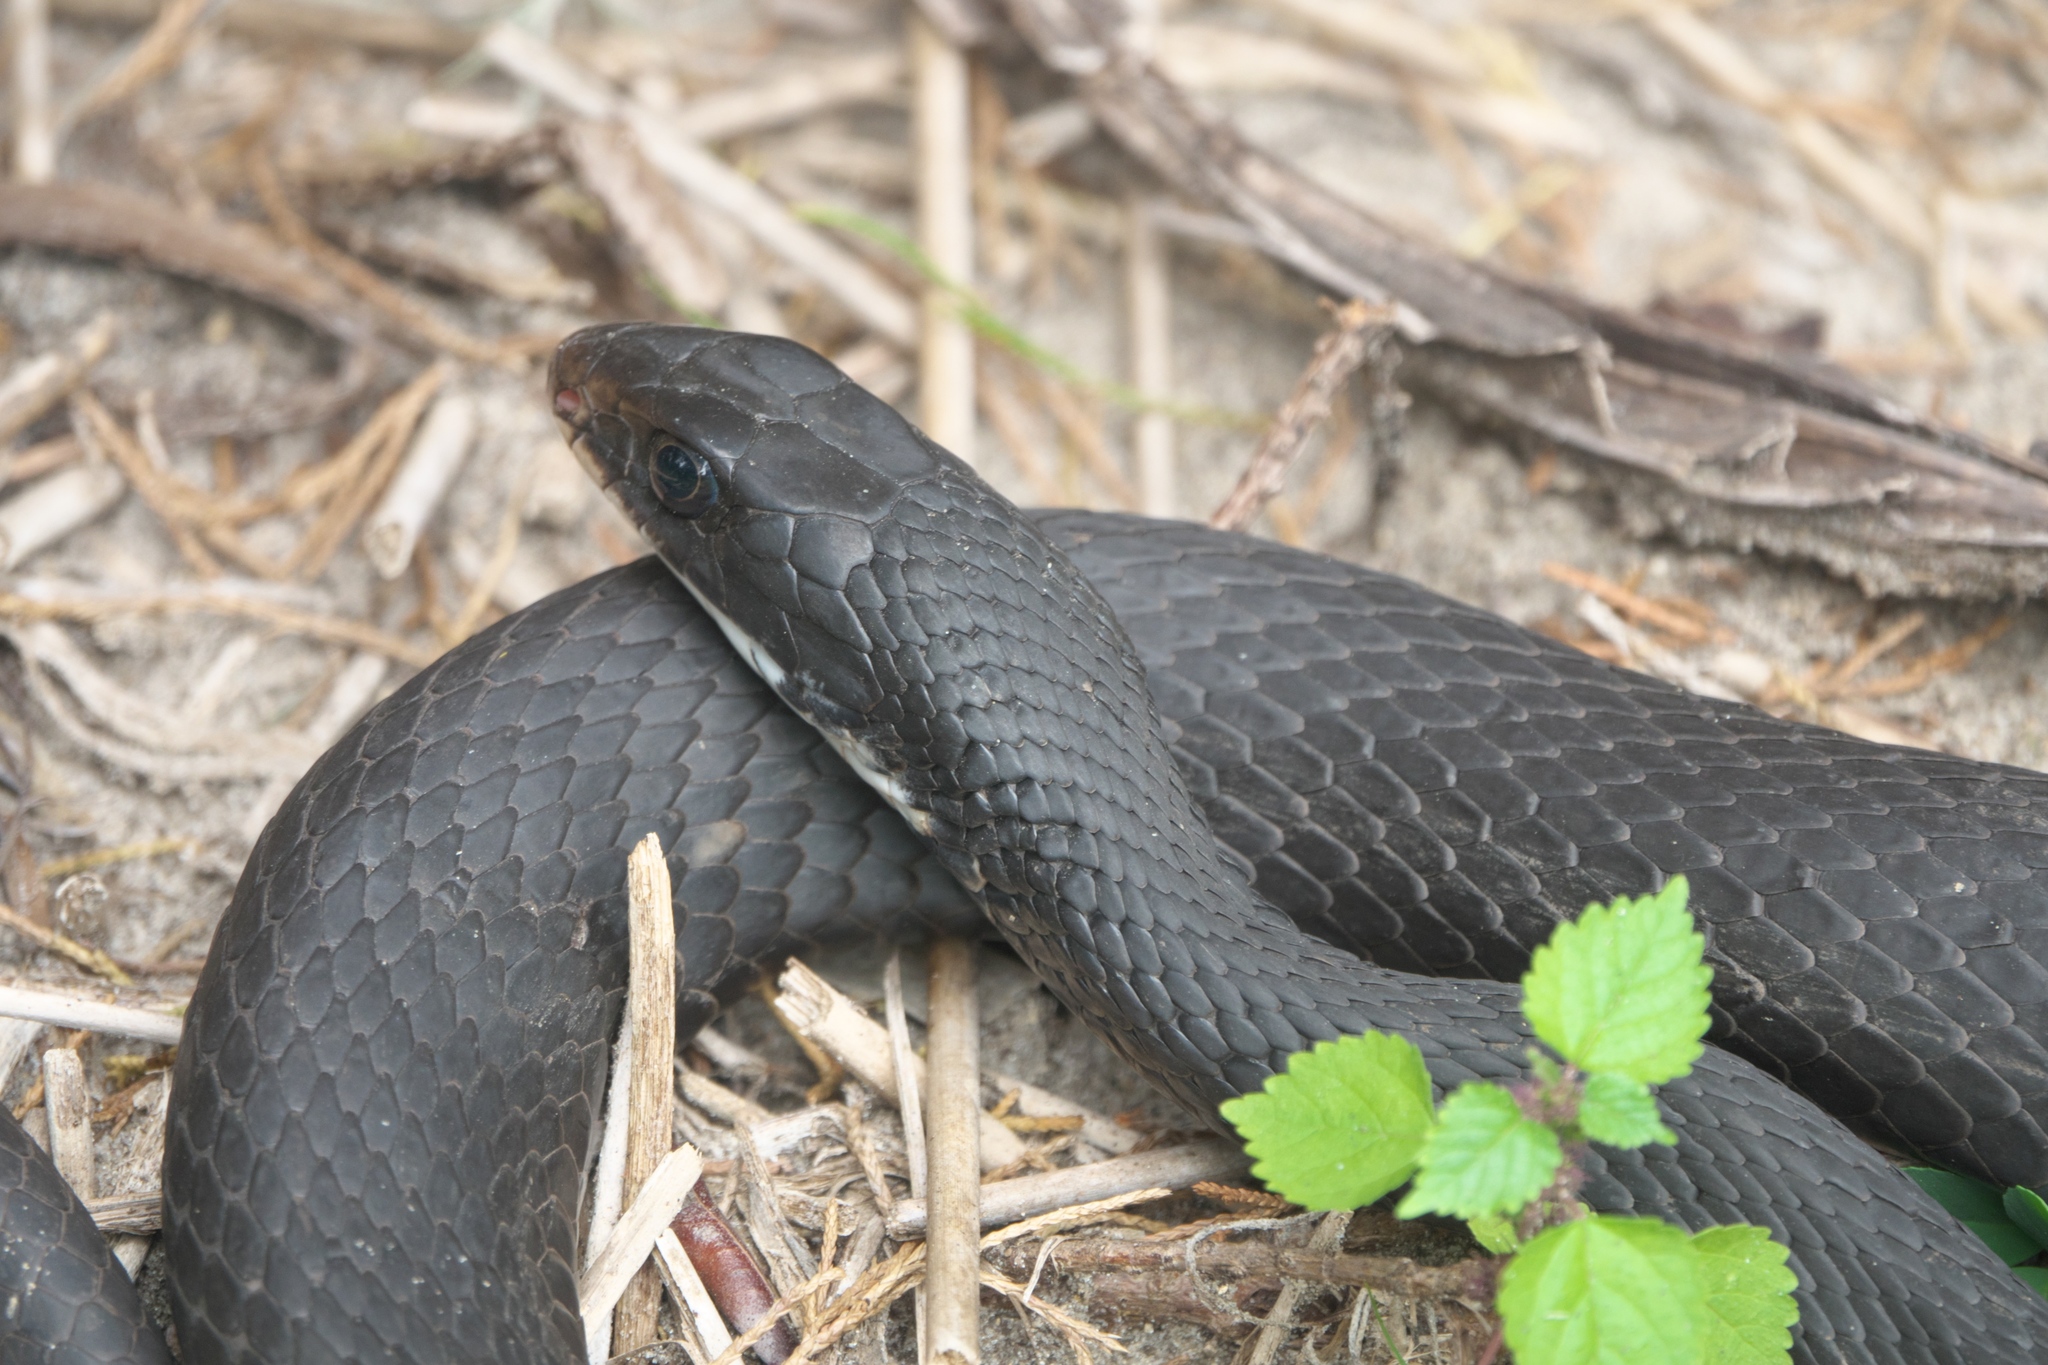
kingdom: Animalia
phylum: Chordata
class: Squamata
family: Colubridae
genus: Coluber
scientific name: Coluber constrictor
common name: Eastern racer
